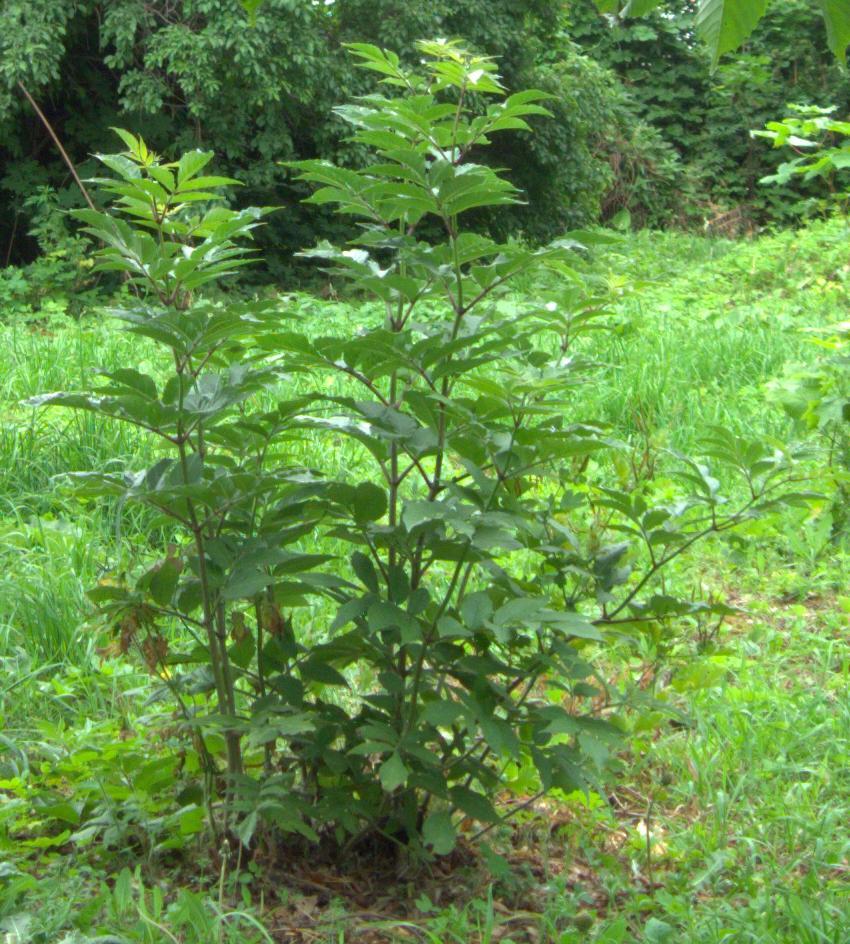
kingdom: Plantae
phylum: Tracheophyta
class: Magnoliopsida
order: Dipsacales
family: Viburnaceae
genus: Sambucus
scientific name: Sambucus racemosa
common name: Red-berried elder
